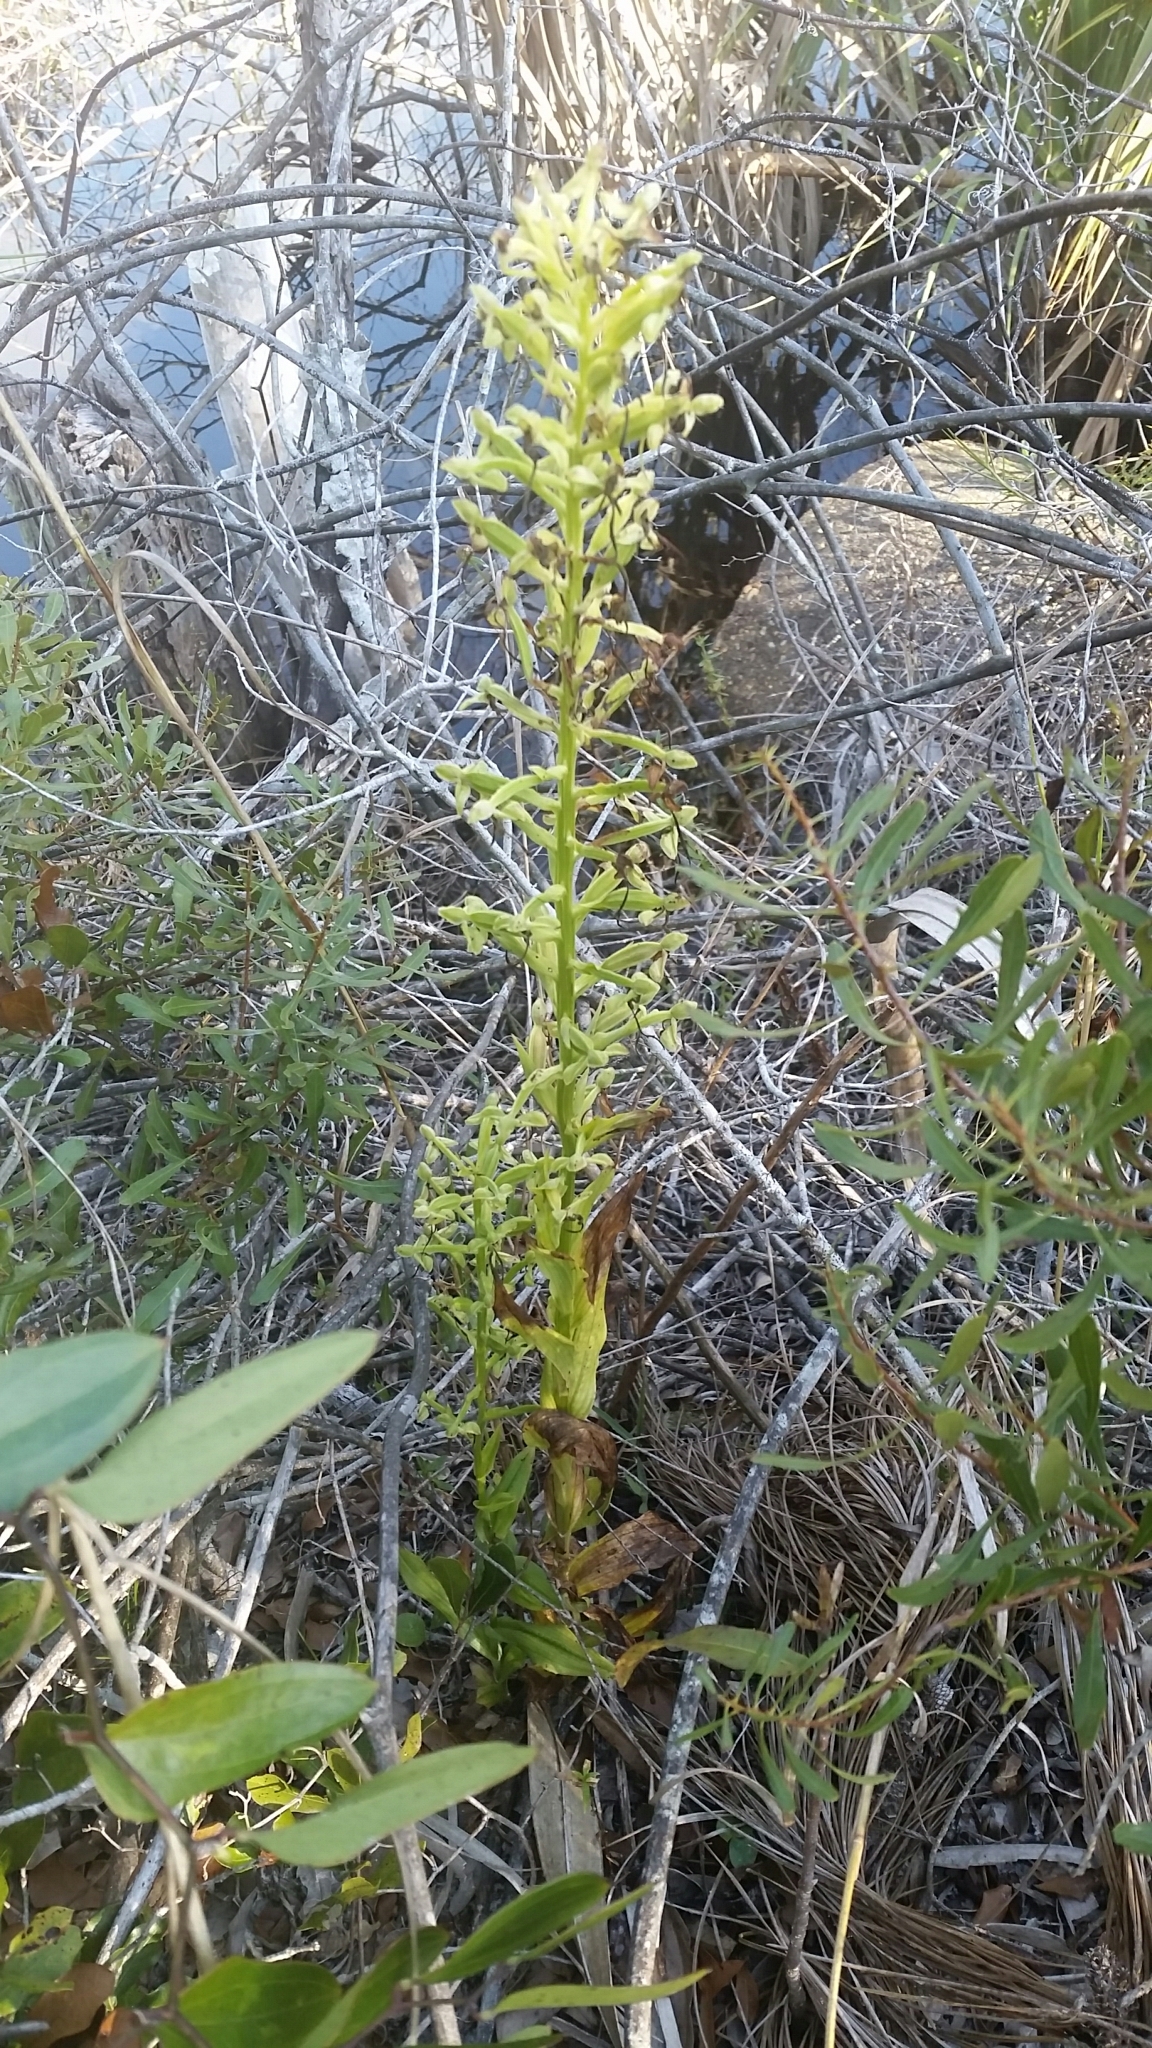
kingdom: Plantae
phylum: Tracheophyta
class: Liliopsida
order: Asparagales
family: Orchidaceae
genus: Habenaria
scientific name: Habenaria floribunda
